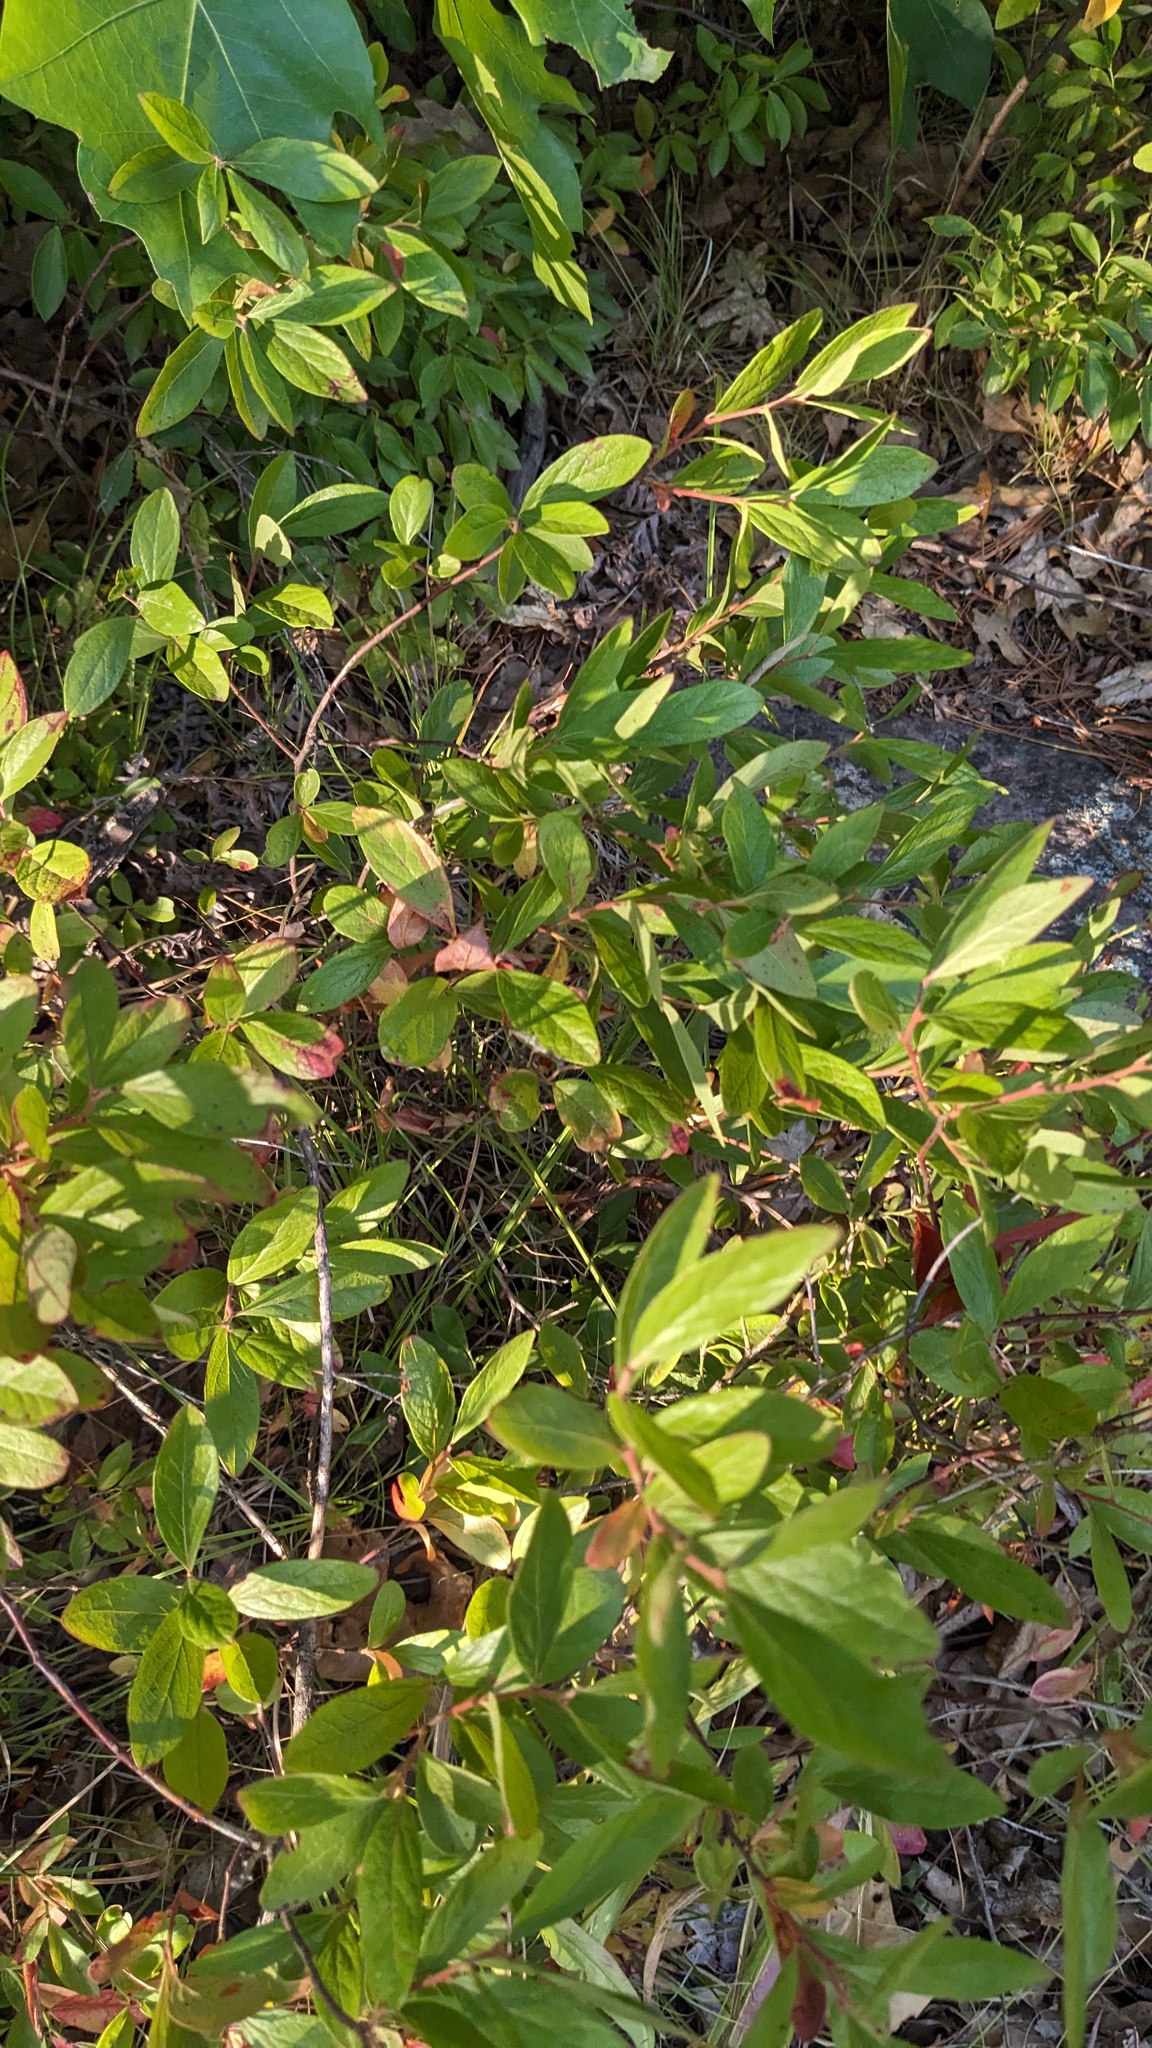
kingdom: Plantae
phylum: Tracheophyta
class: Magnoliopsida
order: Ericales
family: Ericaceae
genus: Gaylussacia
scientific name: Gaylussacia baccata
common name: Black huckleberry
